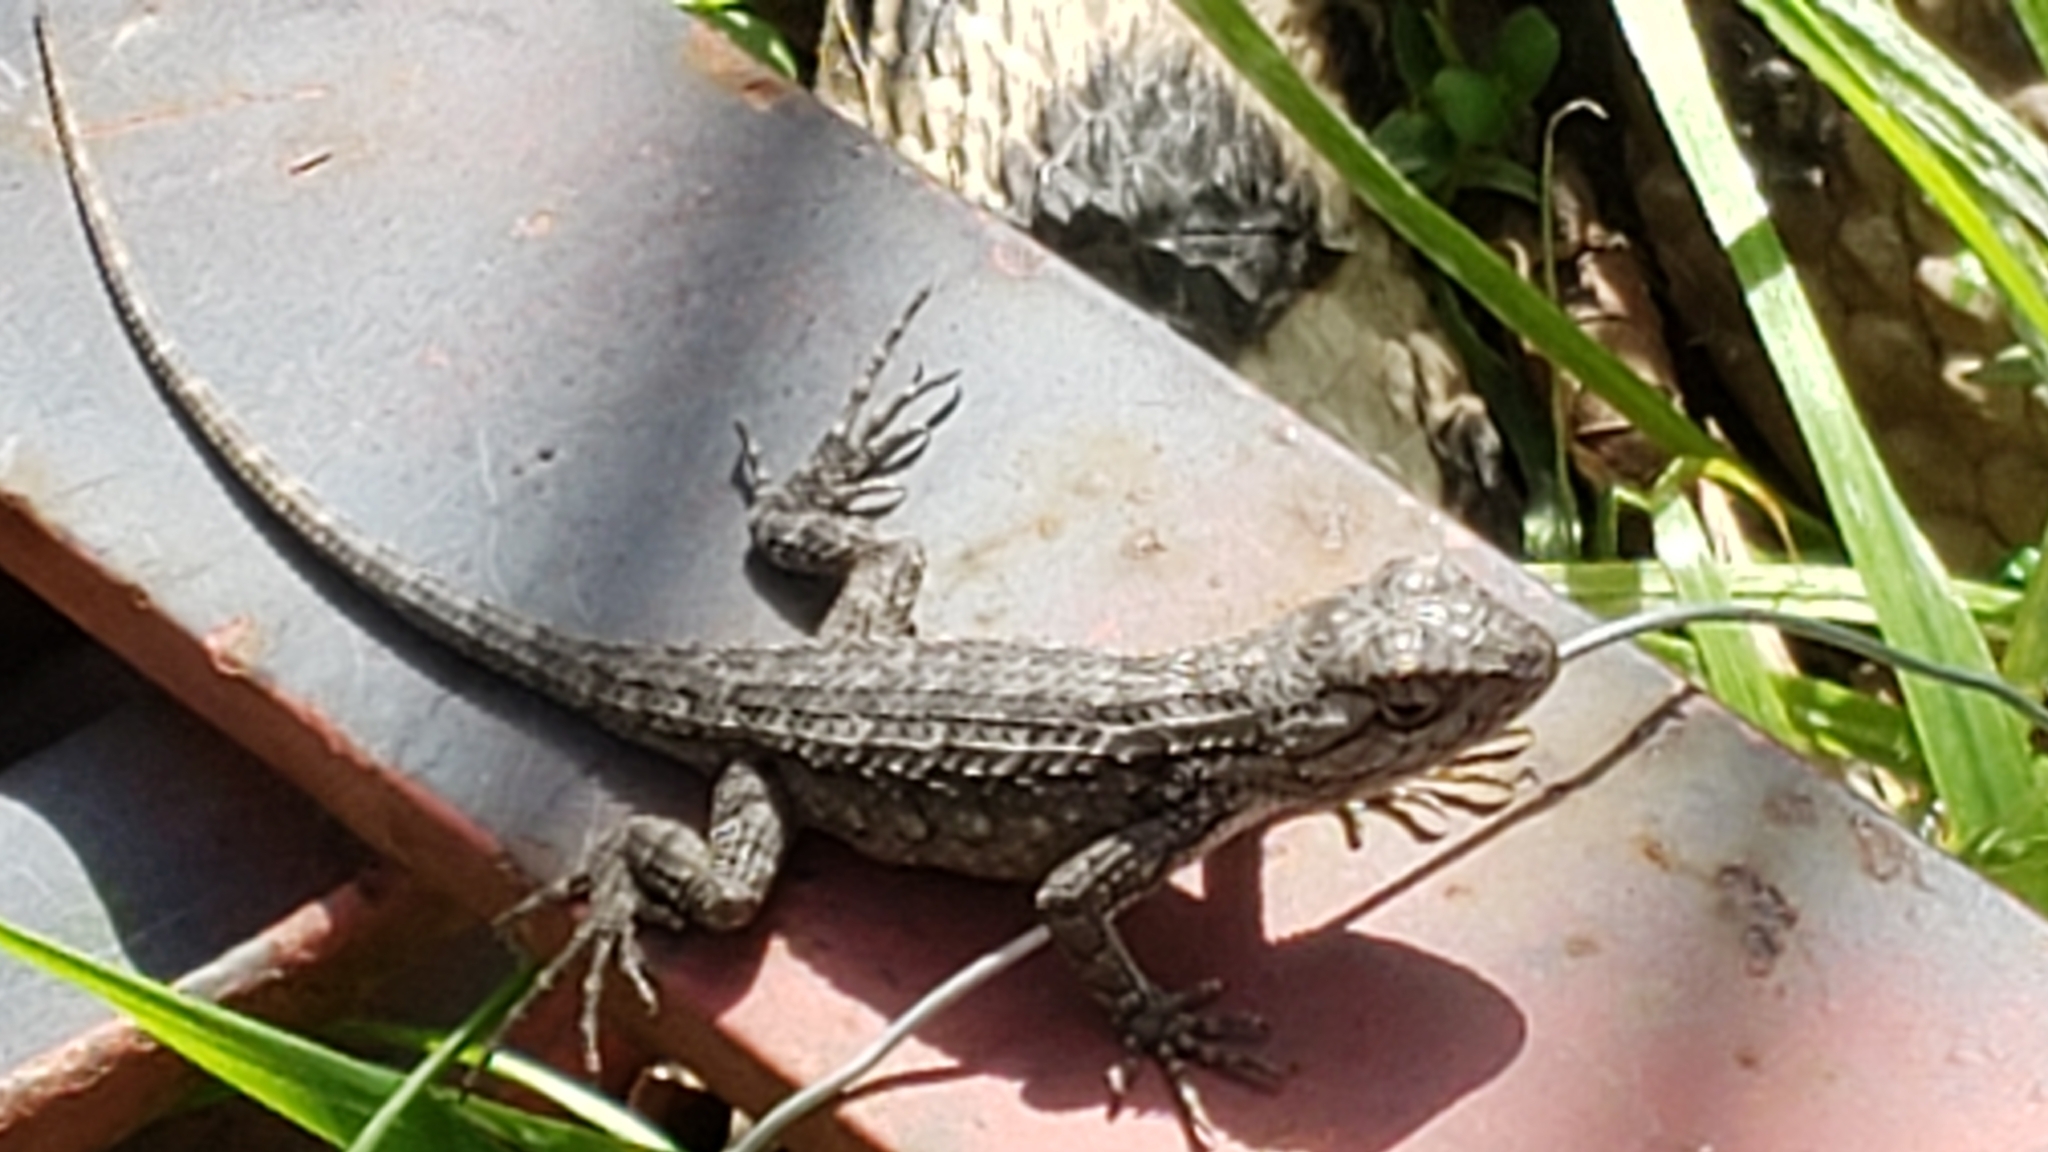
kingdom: Animalia
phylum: Chordata
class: Squamata
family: Phrynosomatidae
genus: Sceloporus
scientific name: Sceloporus olivaceus
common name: Texas spiny lizard
